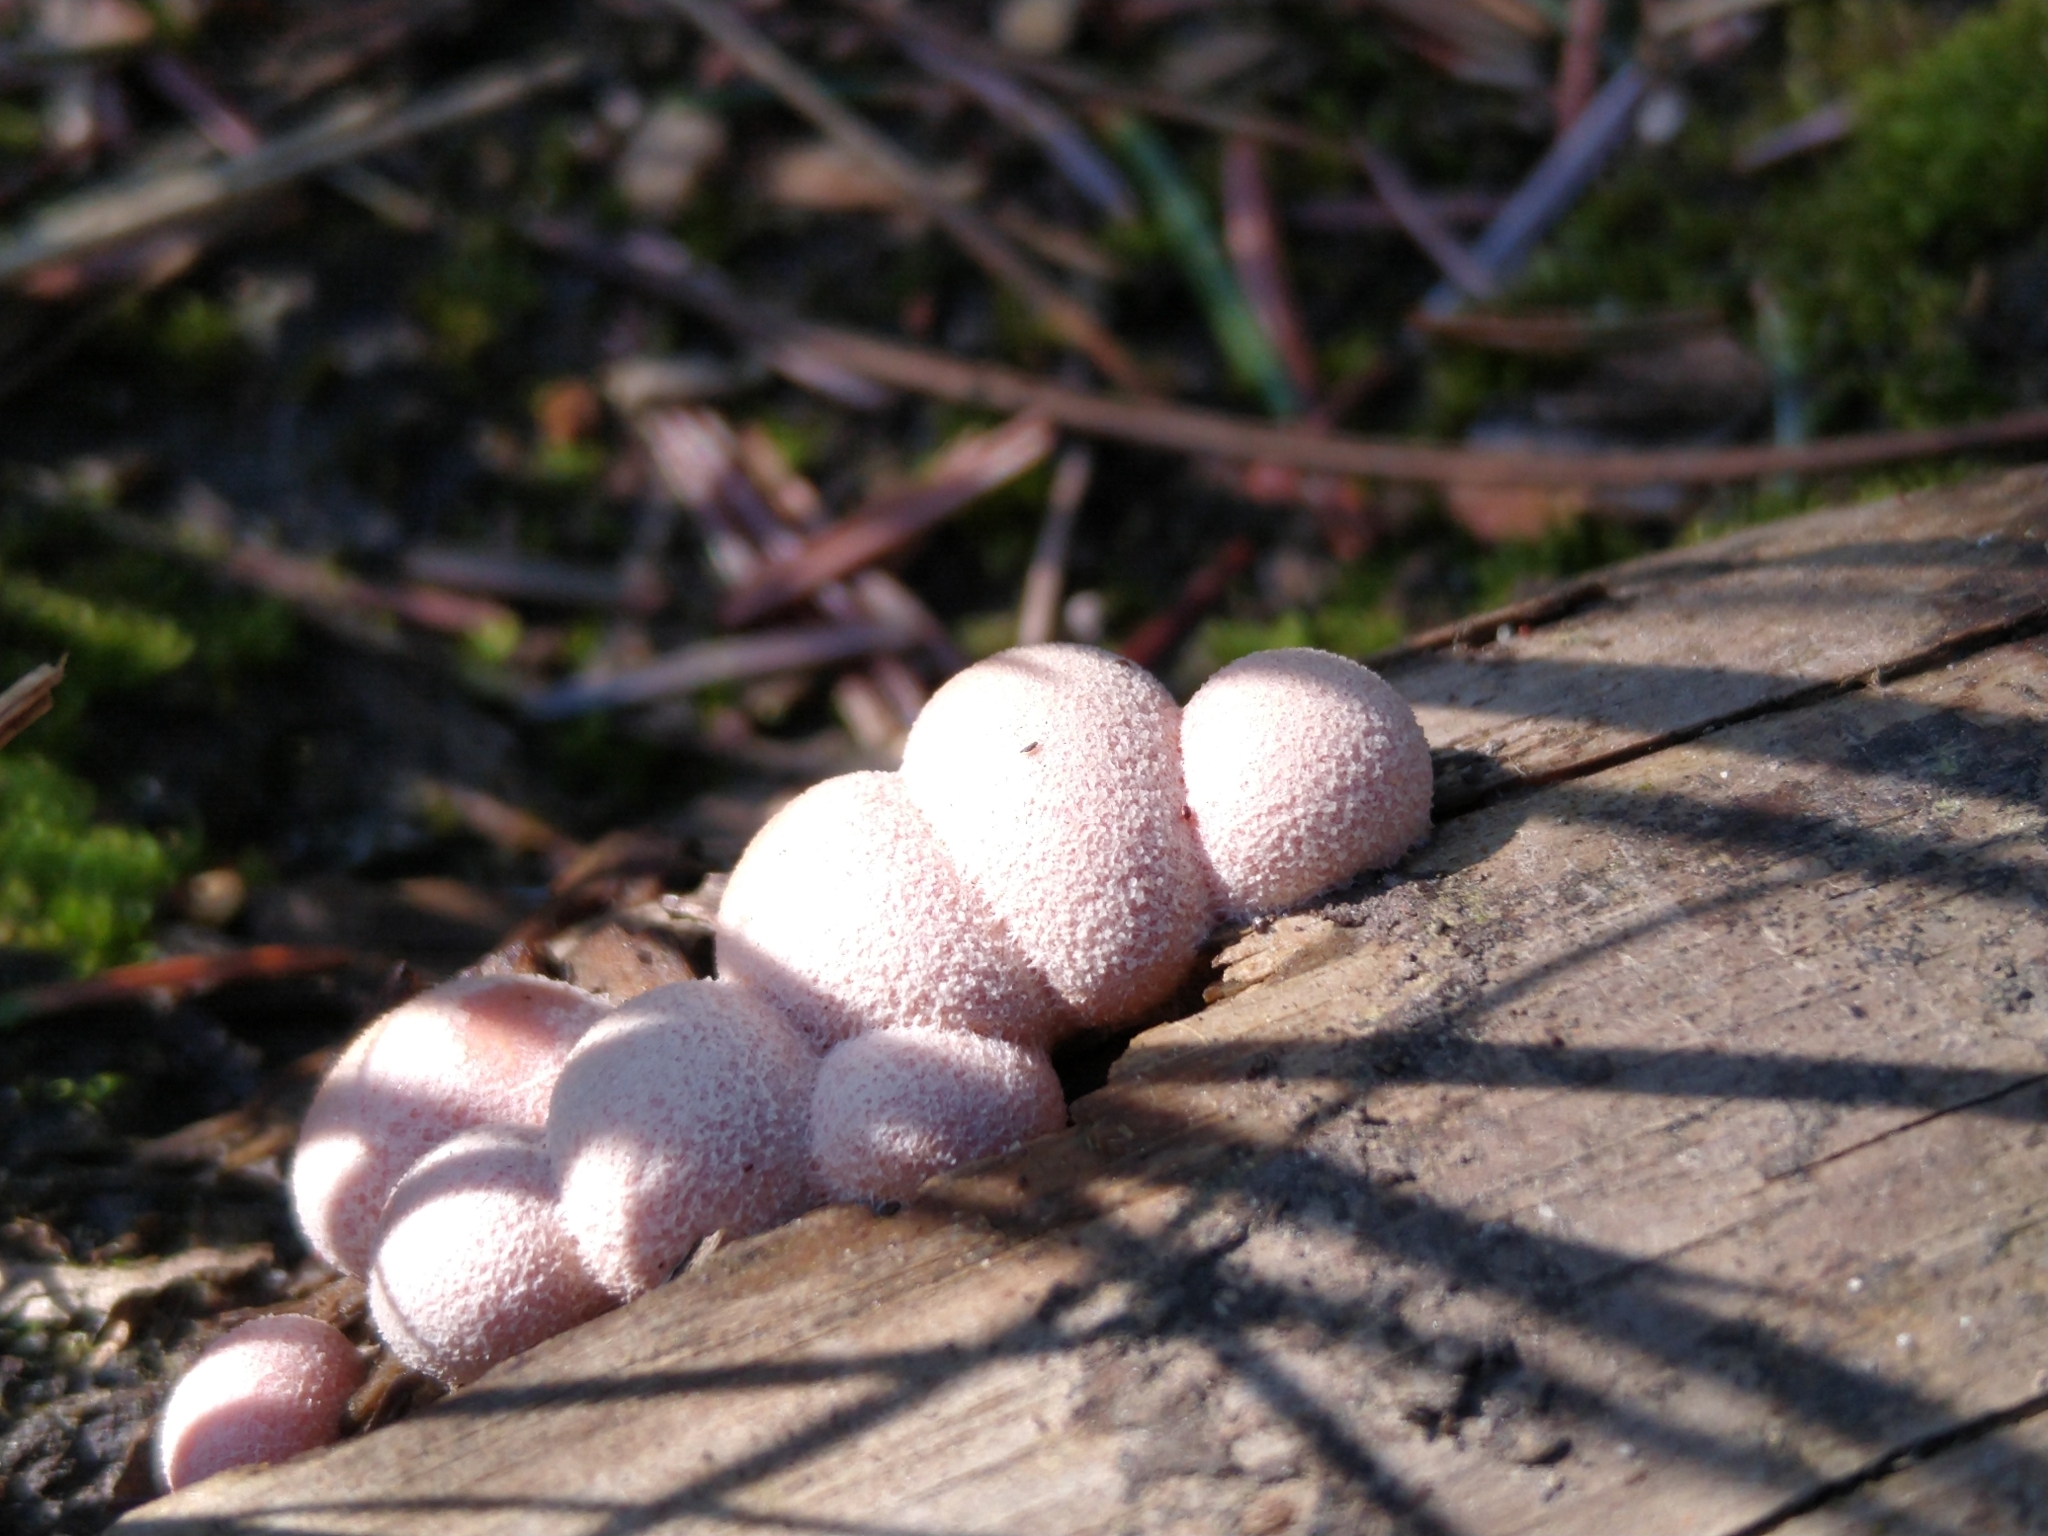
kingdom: Protozoa
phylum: Mycetozoa
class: Myxomycetes
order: Cribrariales
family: Tubiferaceae
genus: Lycogala
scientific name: Lycogala epidendrum
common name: Wolf's milk
